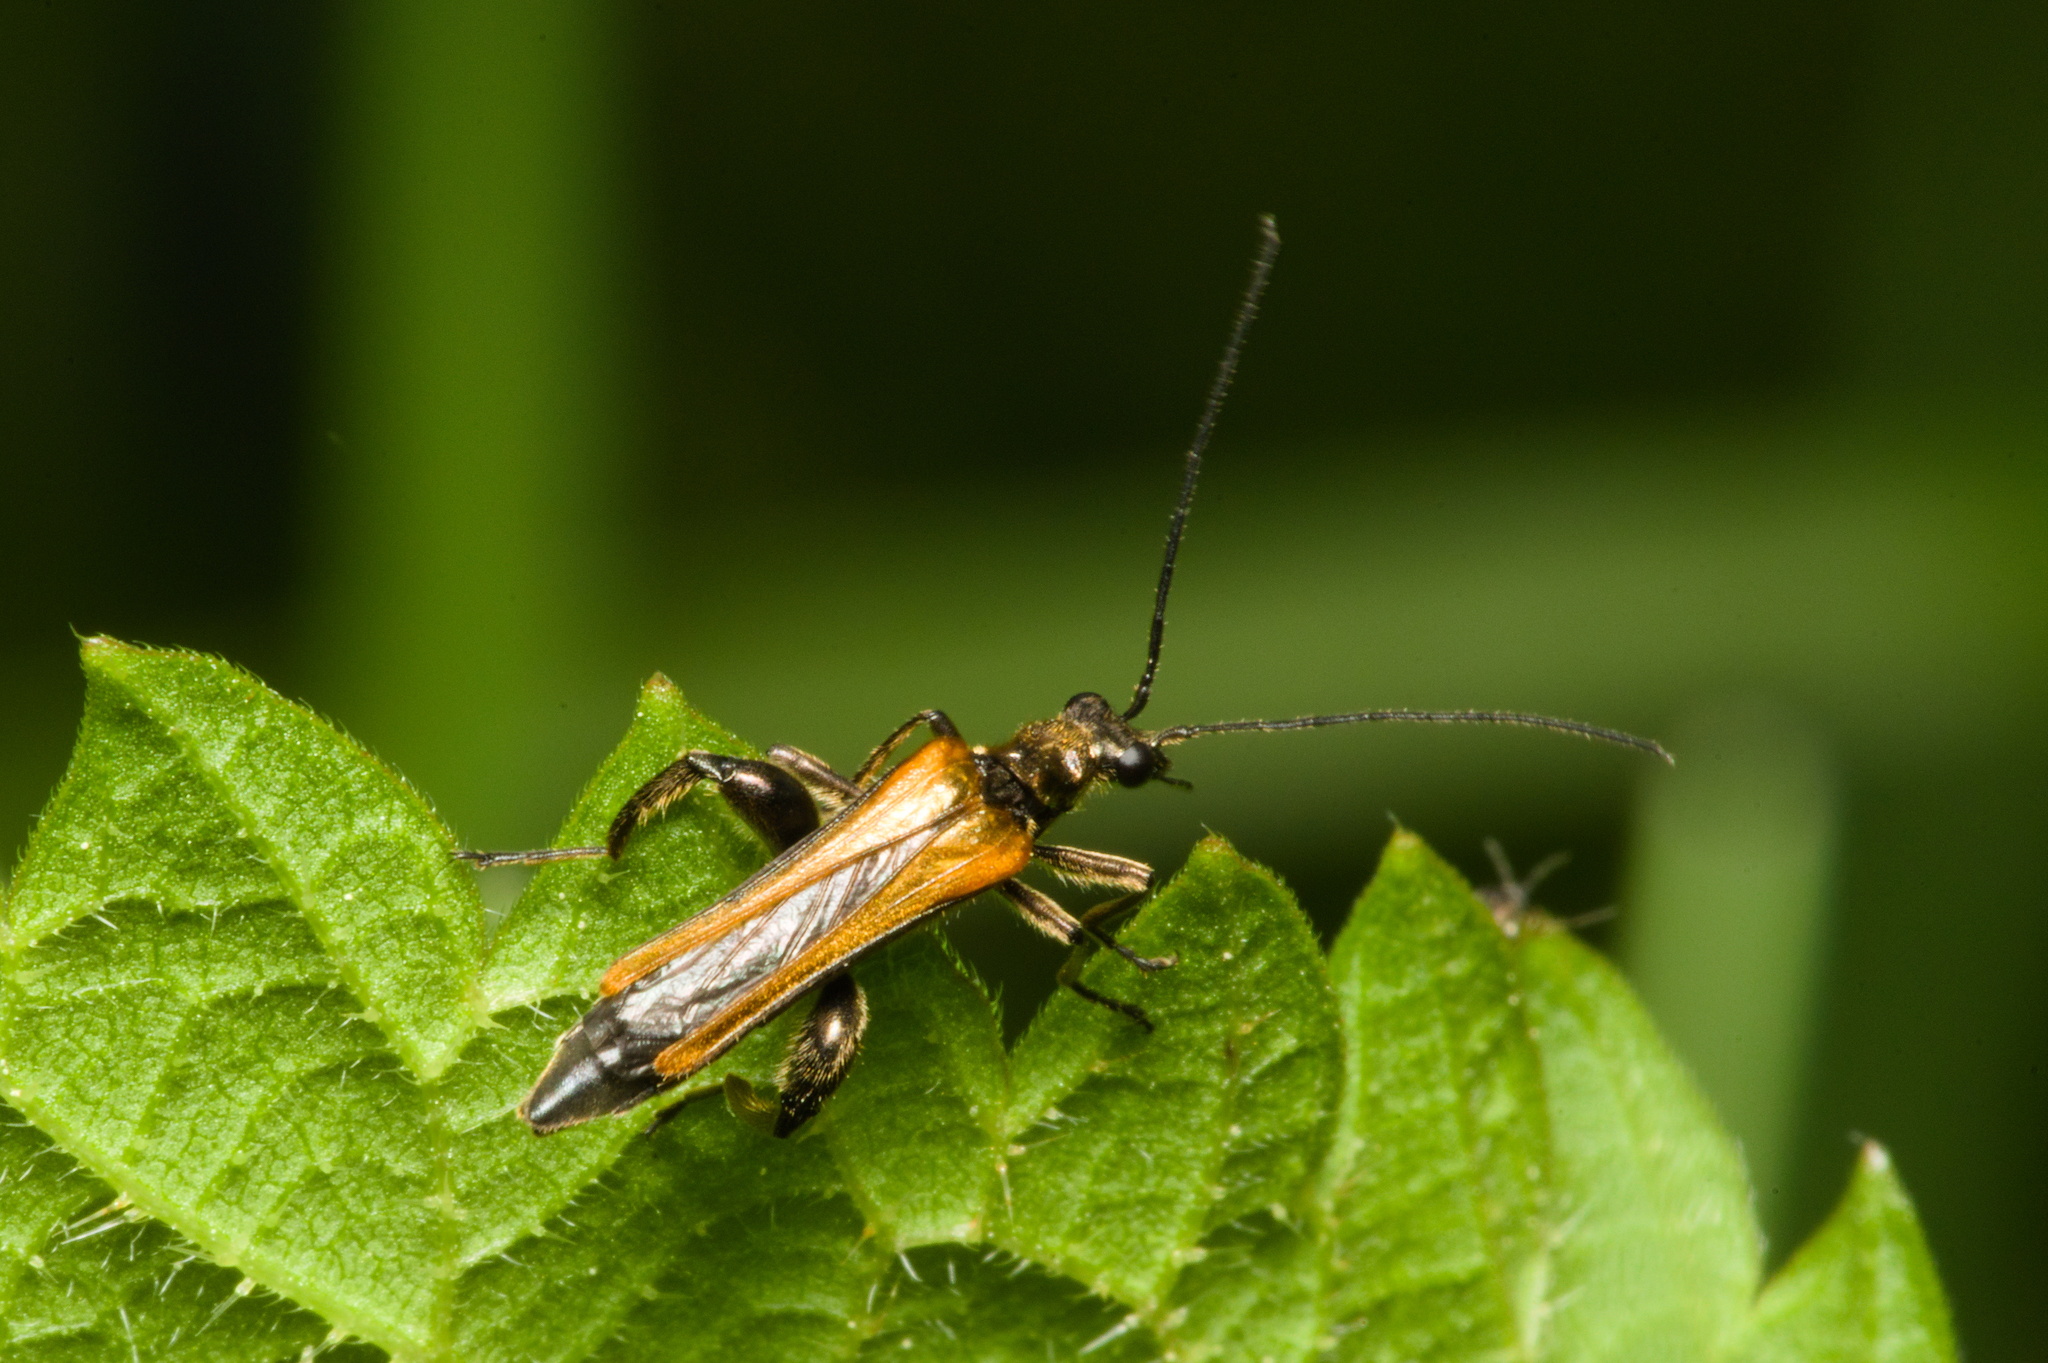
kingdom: Animalia
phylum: Arthropoda
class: Insecta
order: Coleoptera
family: Oedemeridae
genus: Oedemera
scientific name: Oedemera femorata
